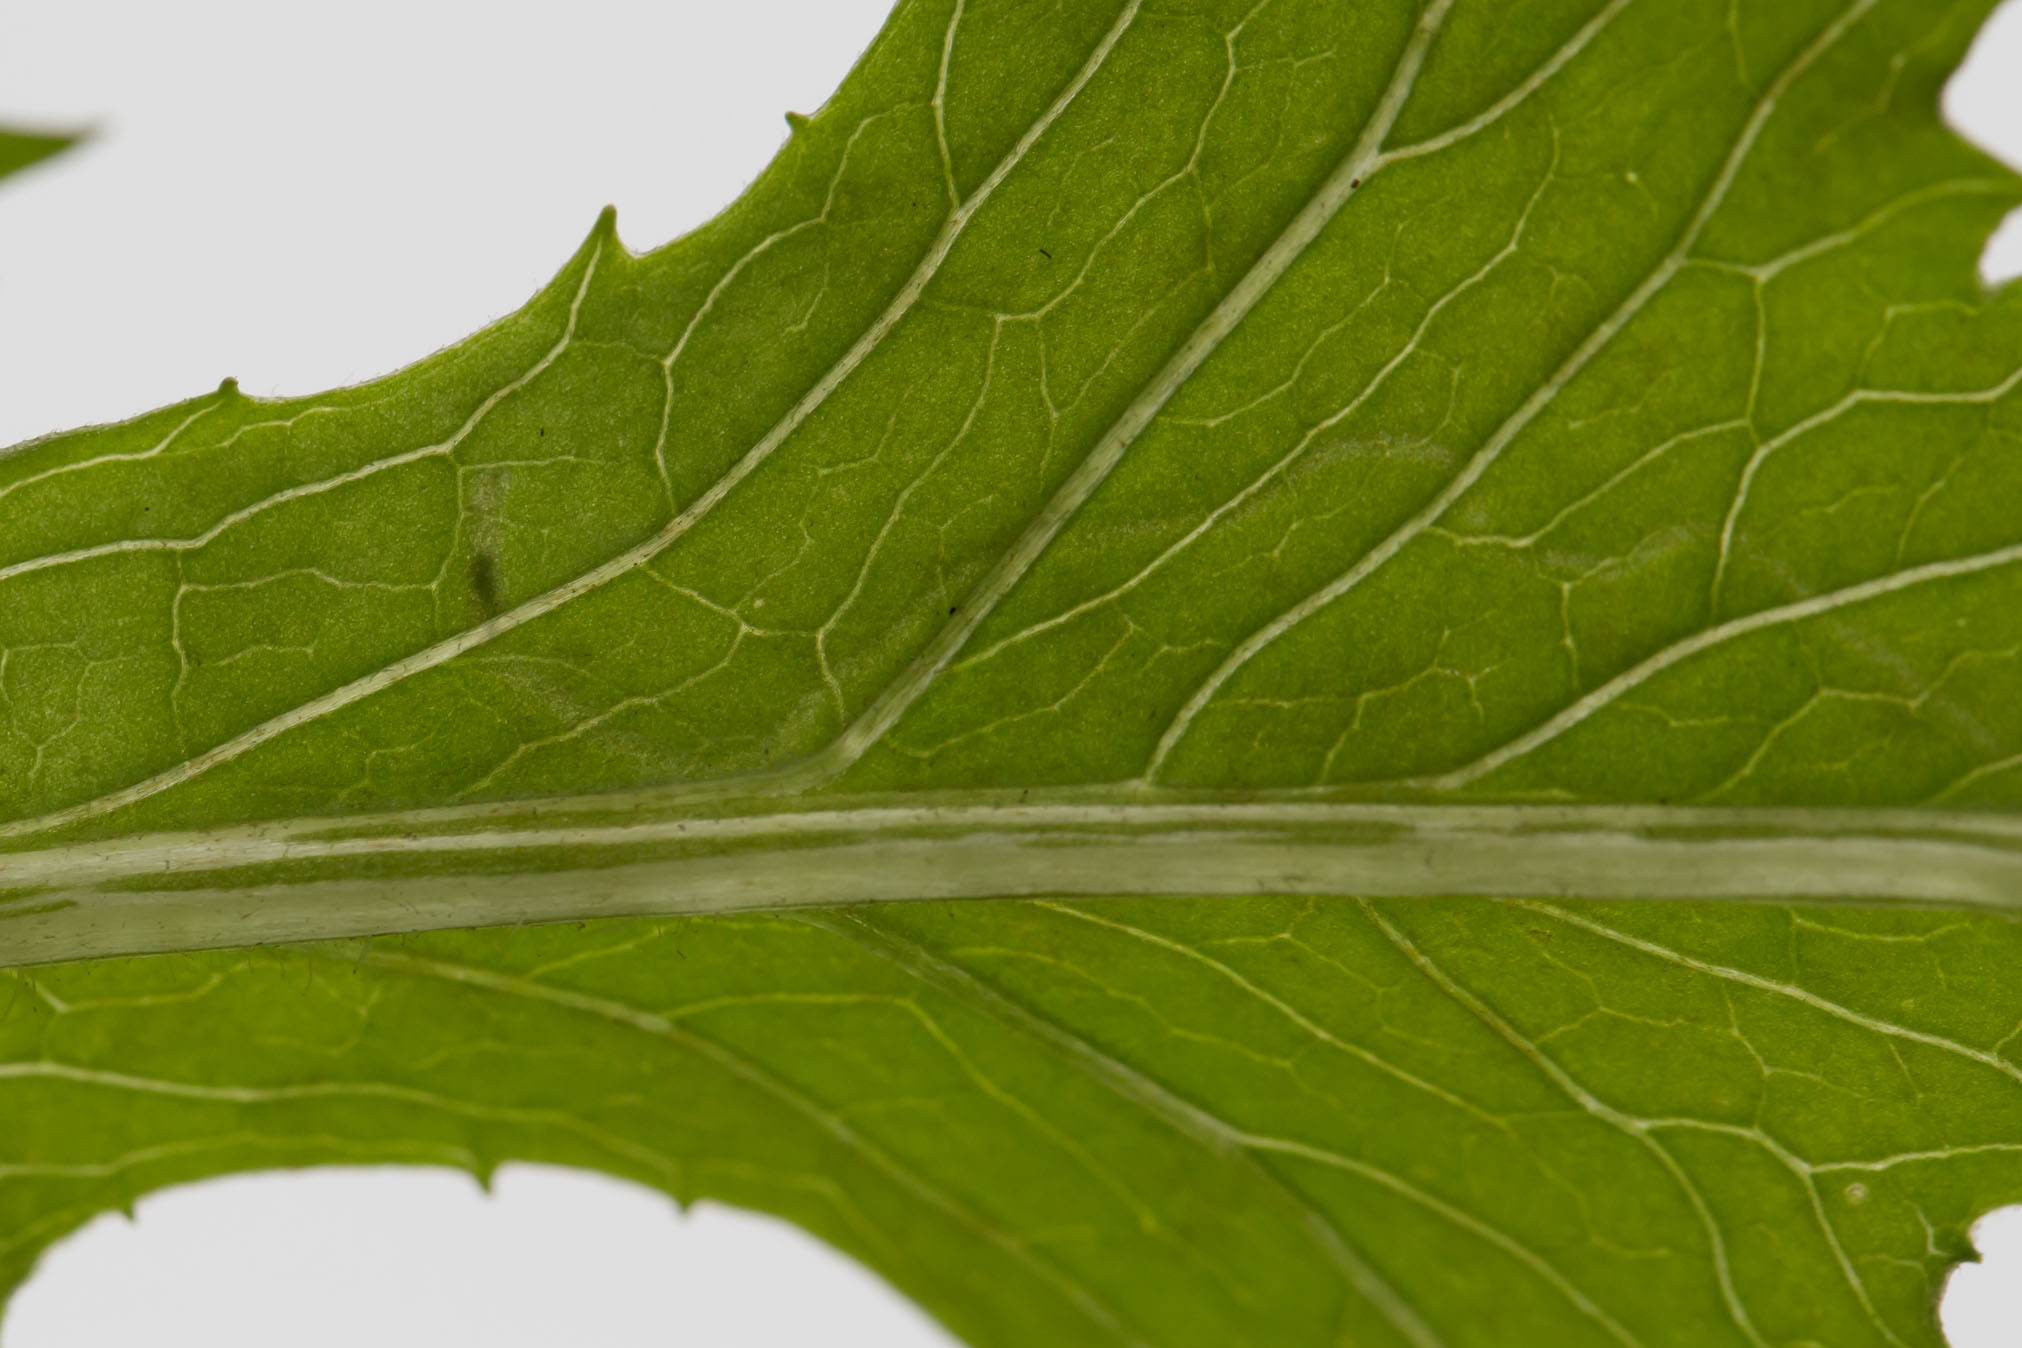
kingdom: Animalia
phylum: Arthropoda
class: Insecta
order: Lepidoptera
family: Gracillariidae
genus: Phyllocnistis
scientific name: Phyllocnistis insignis
